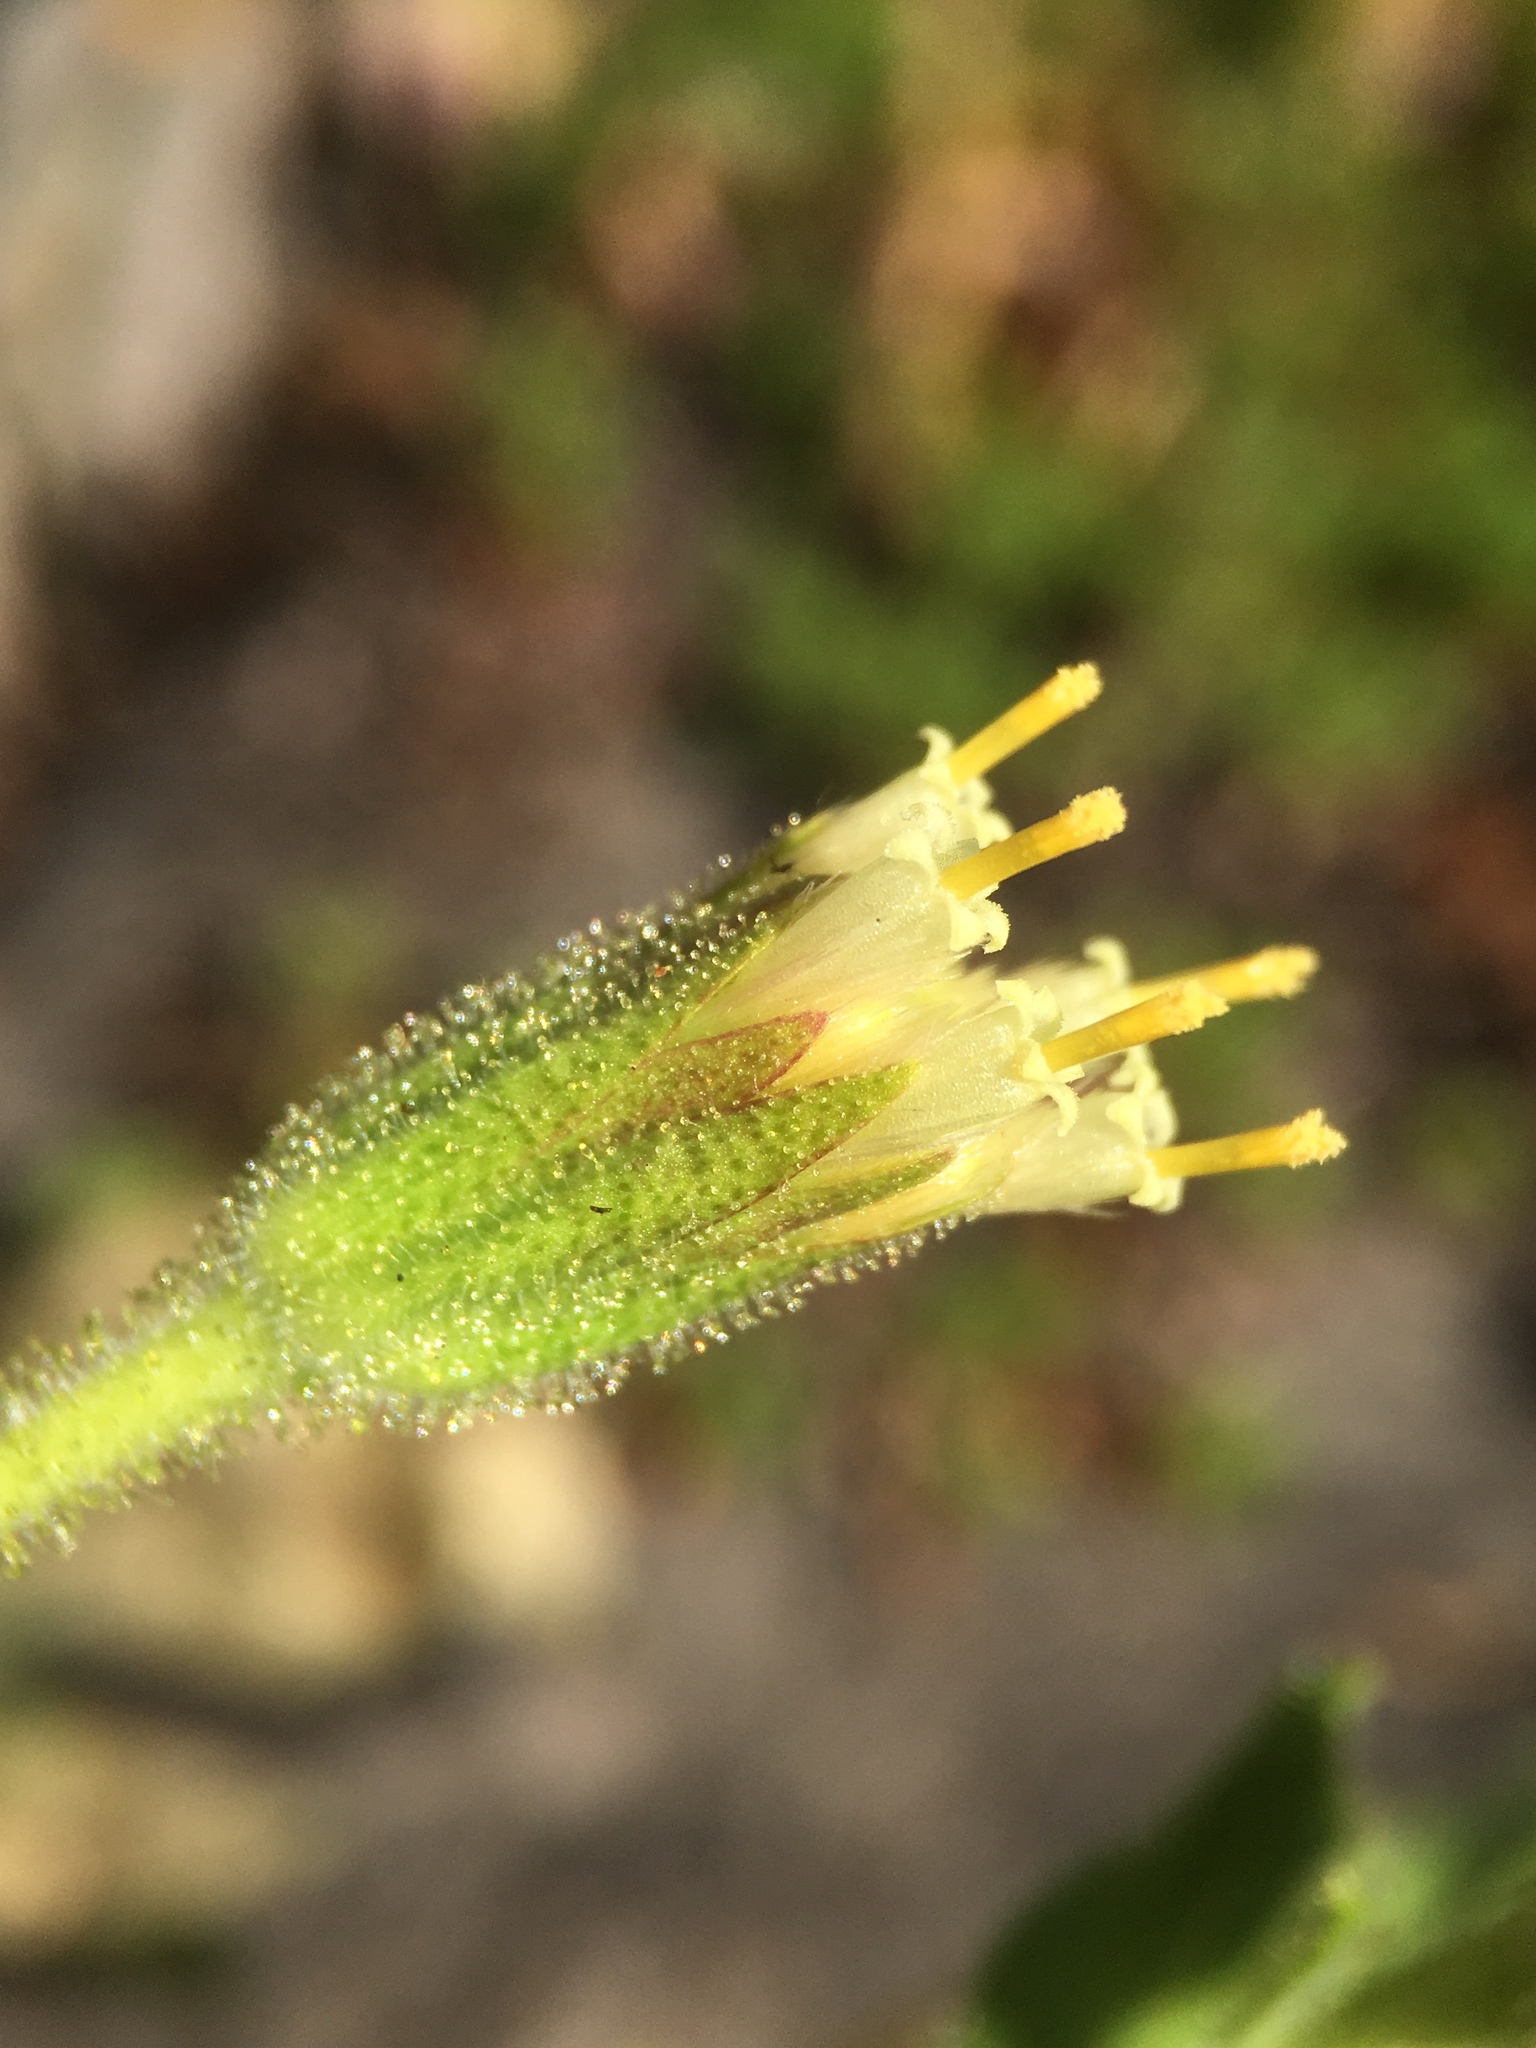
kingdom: Plantae
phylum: Tracheophyta
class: Magnoliopsida
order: Asterales
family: Asteraceae
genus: Arnica
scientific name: Arnica viscosa
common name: Mt. shasta arnica
